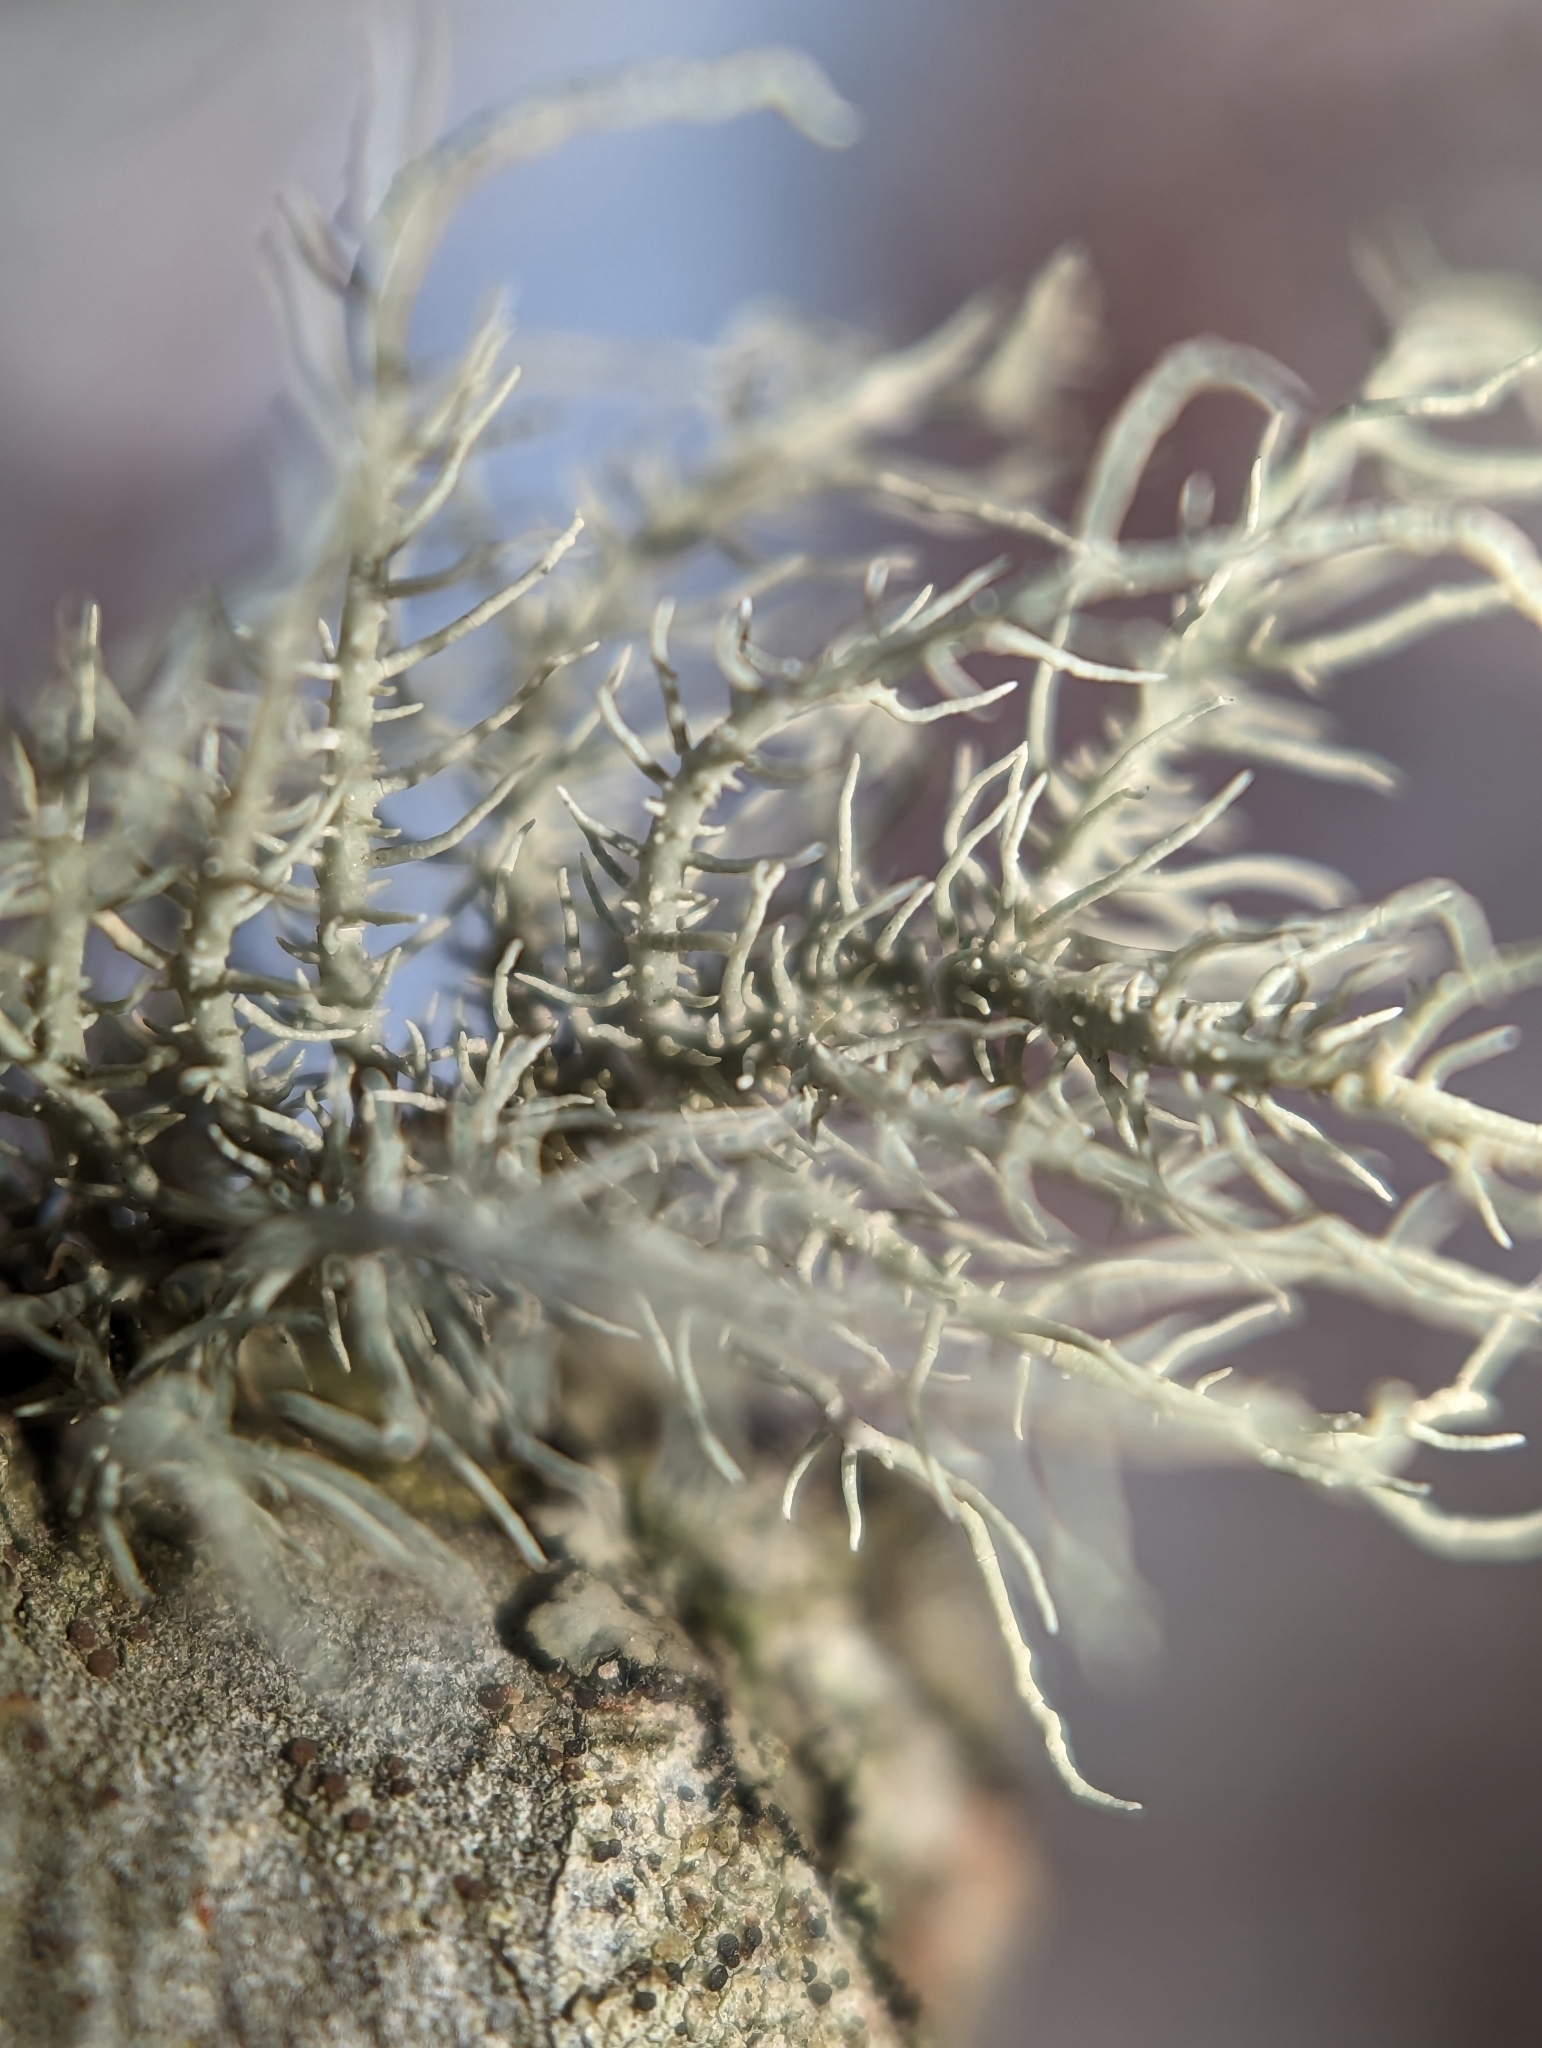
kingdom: Fungi
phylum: Ascomycota
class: Lecanoromycetes
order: Lecanorales
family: Parmeliaceae
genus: Usnea
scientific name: Usnea strigosa
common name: Bushy beard lichen
